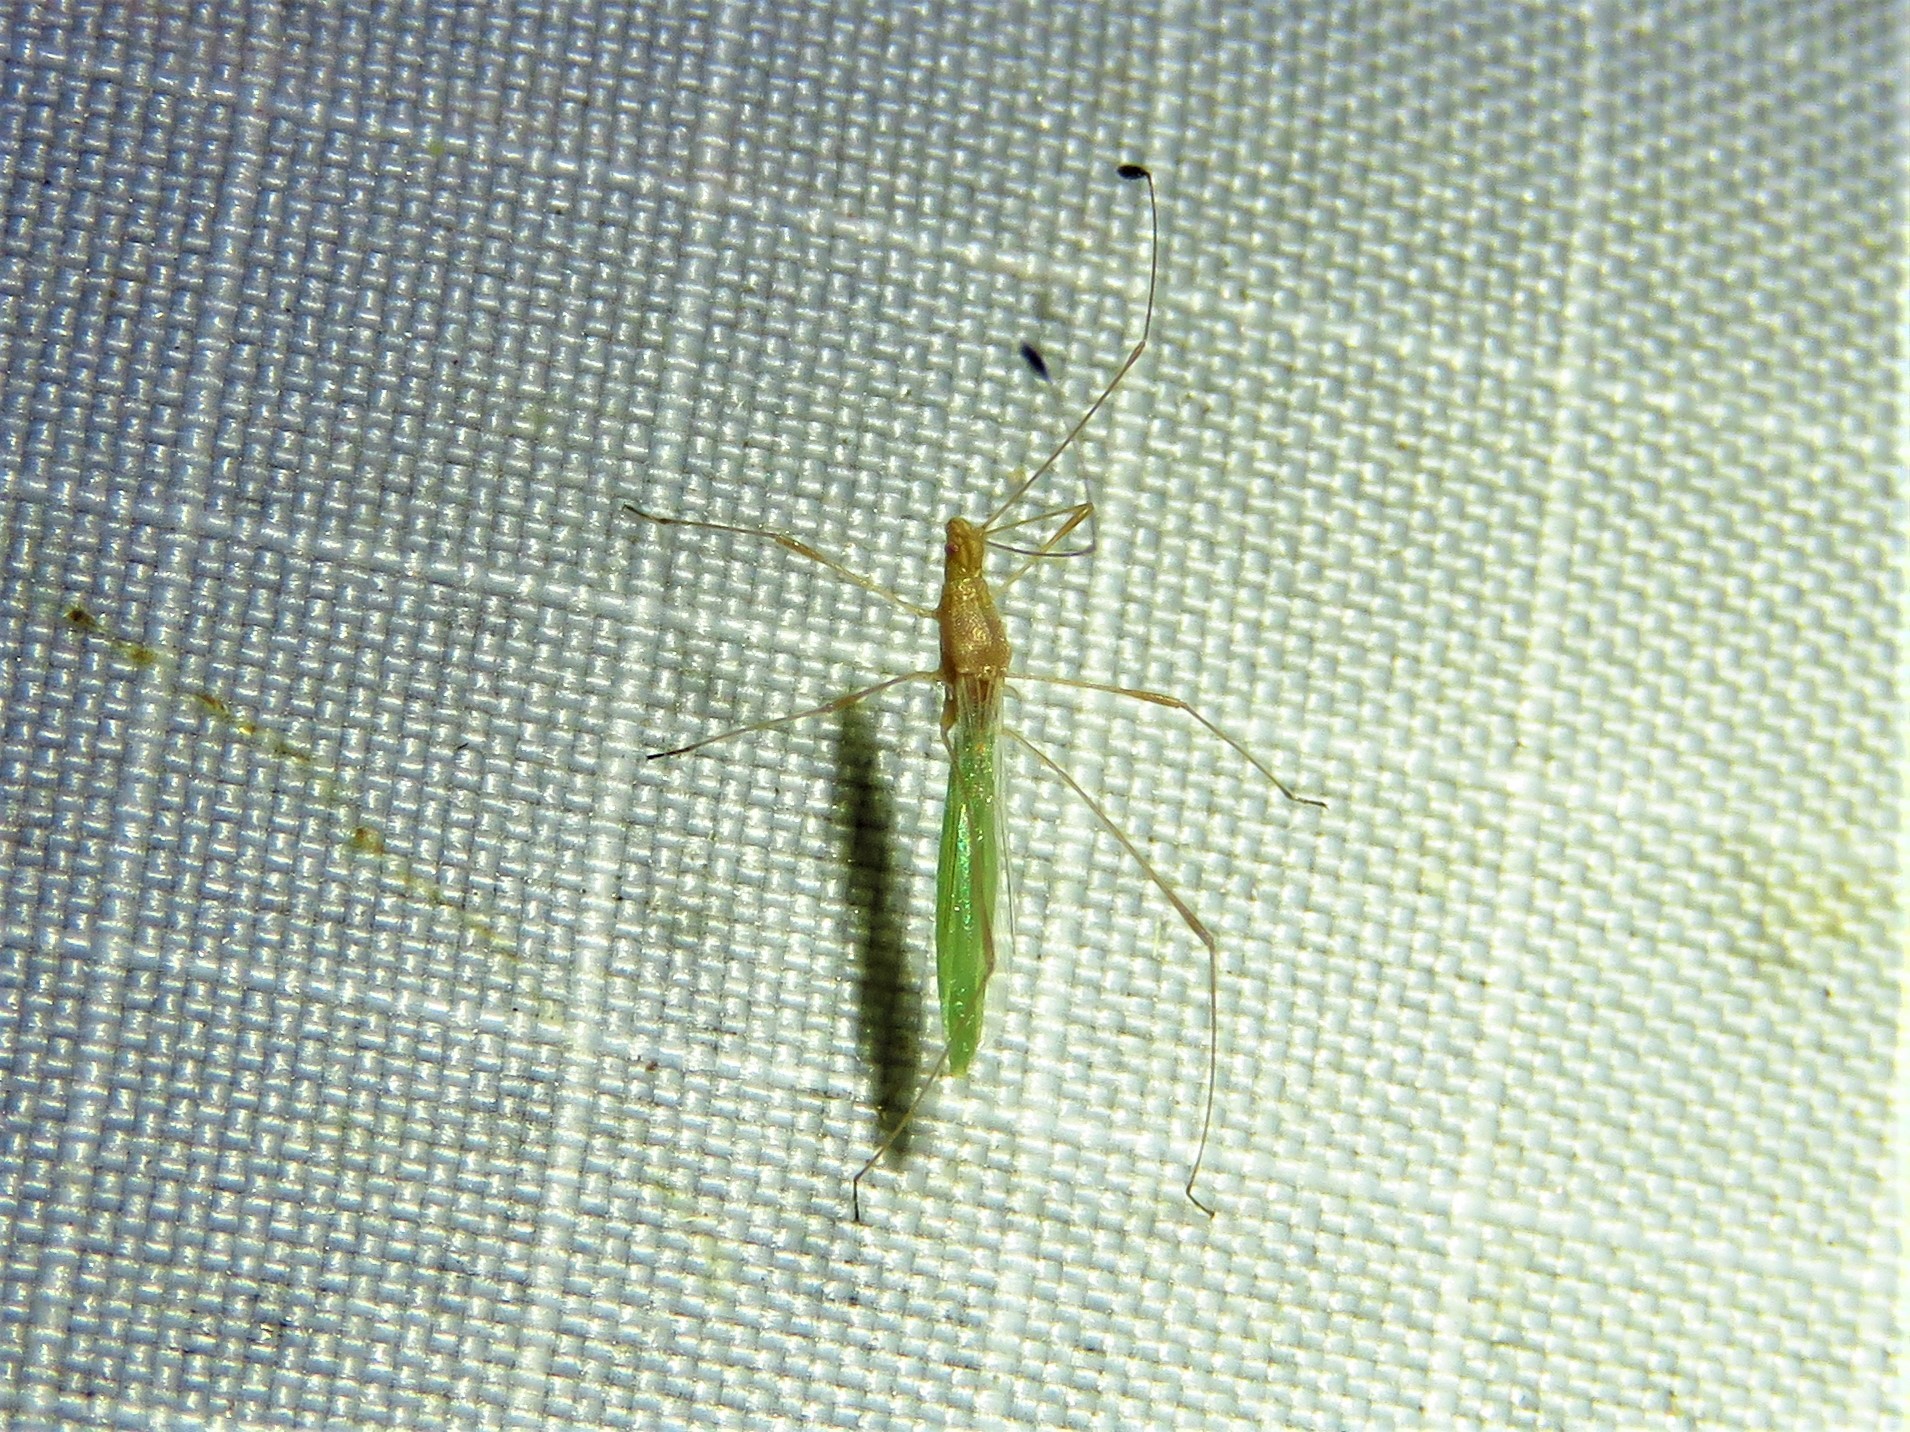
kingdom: Animalia
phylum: Arthropoda
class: Insecta
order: Hemiptera
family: Berytidae
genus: Metacanthus
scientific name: Metacanthus multispinus
